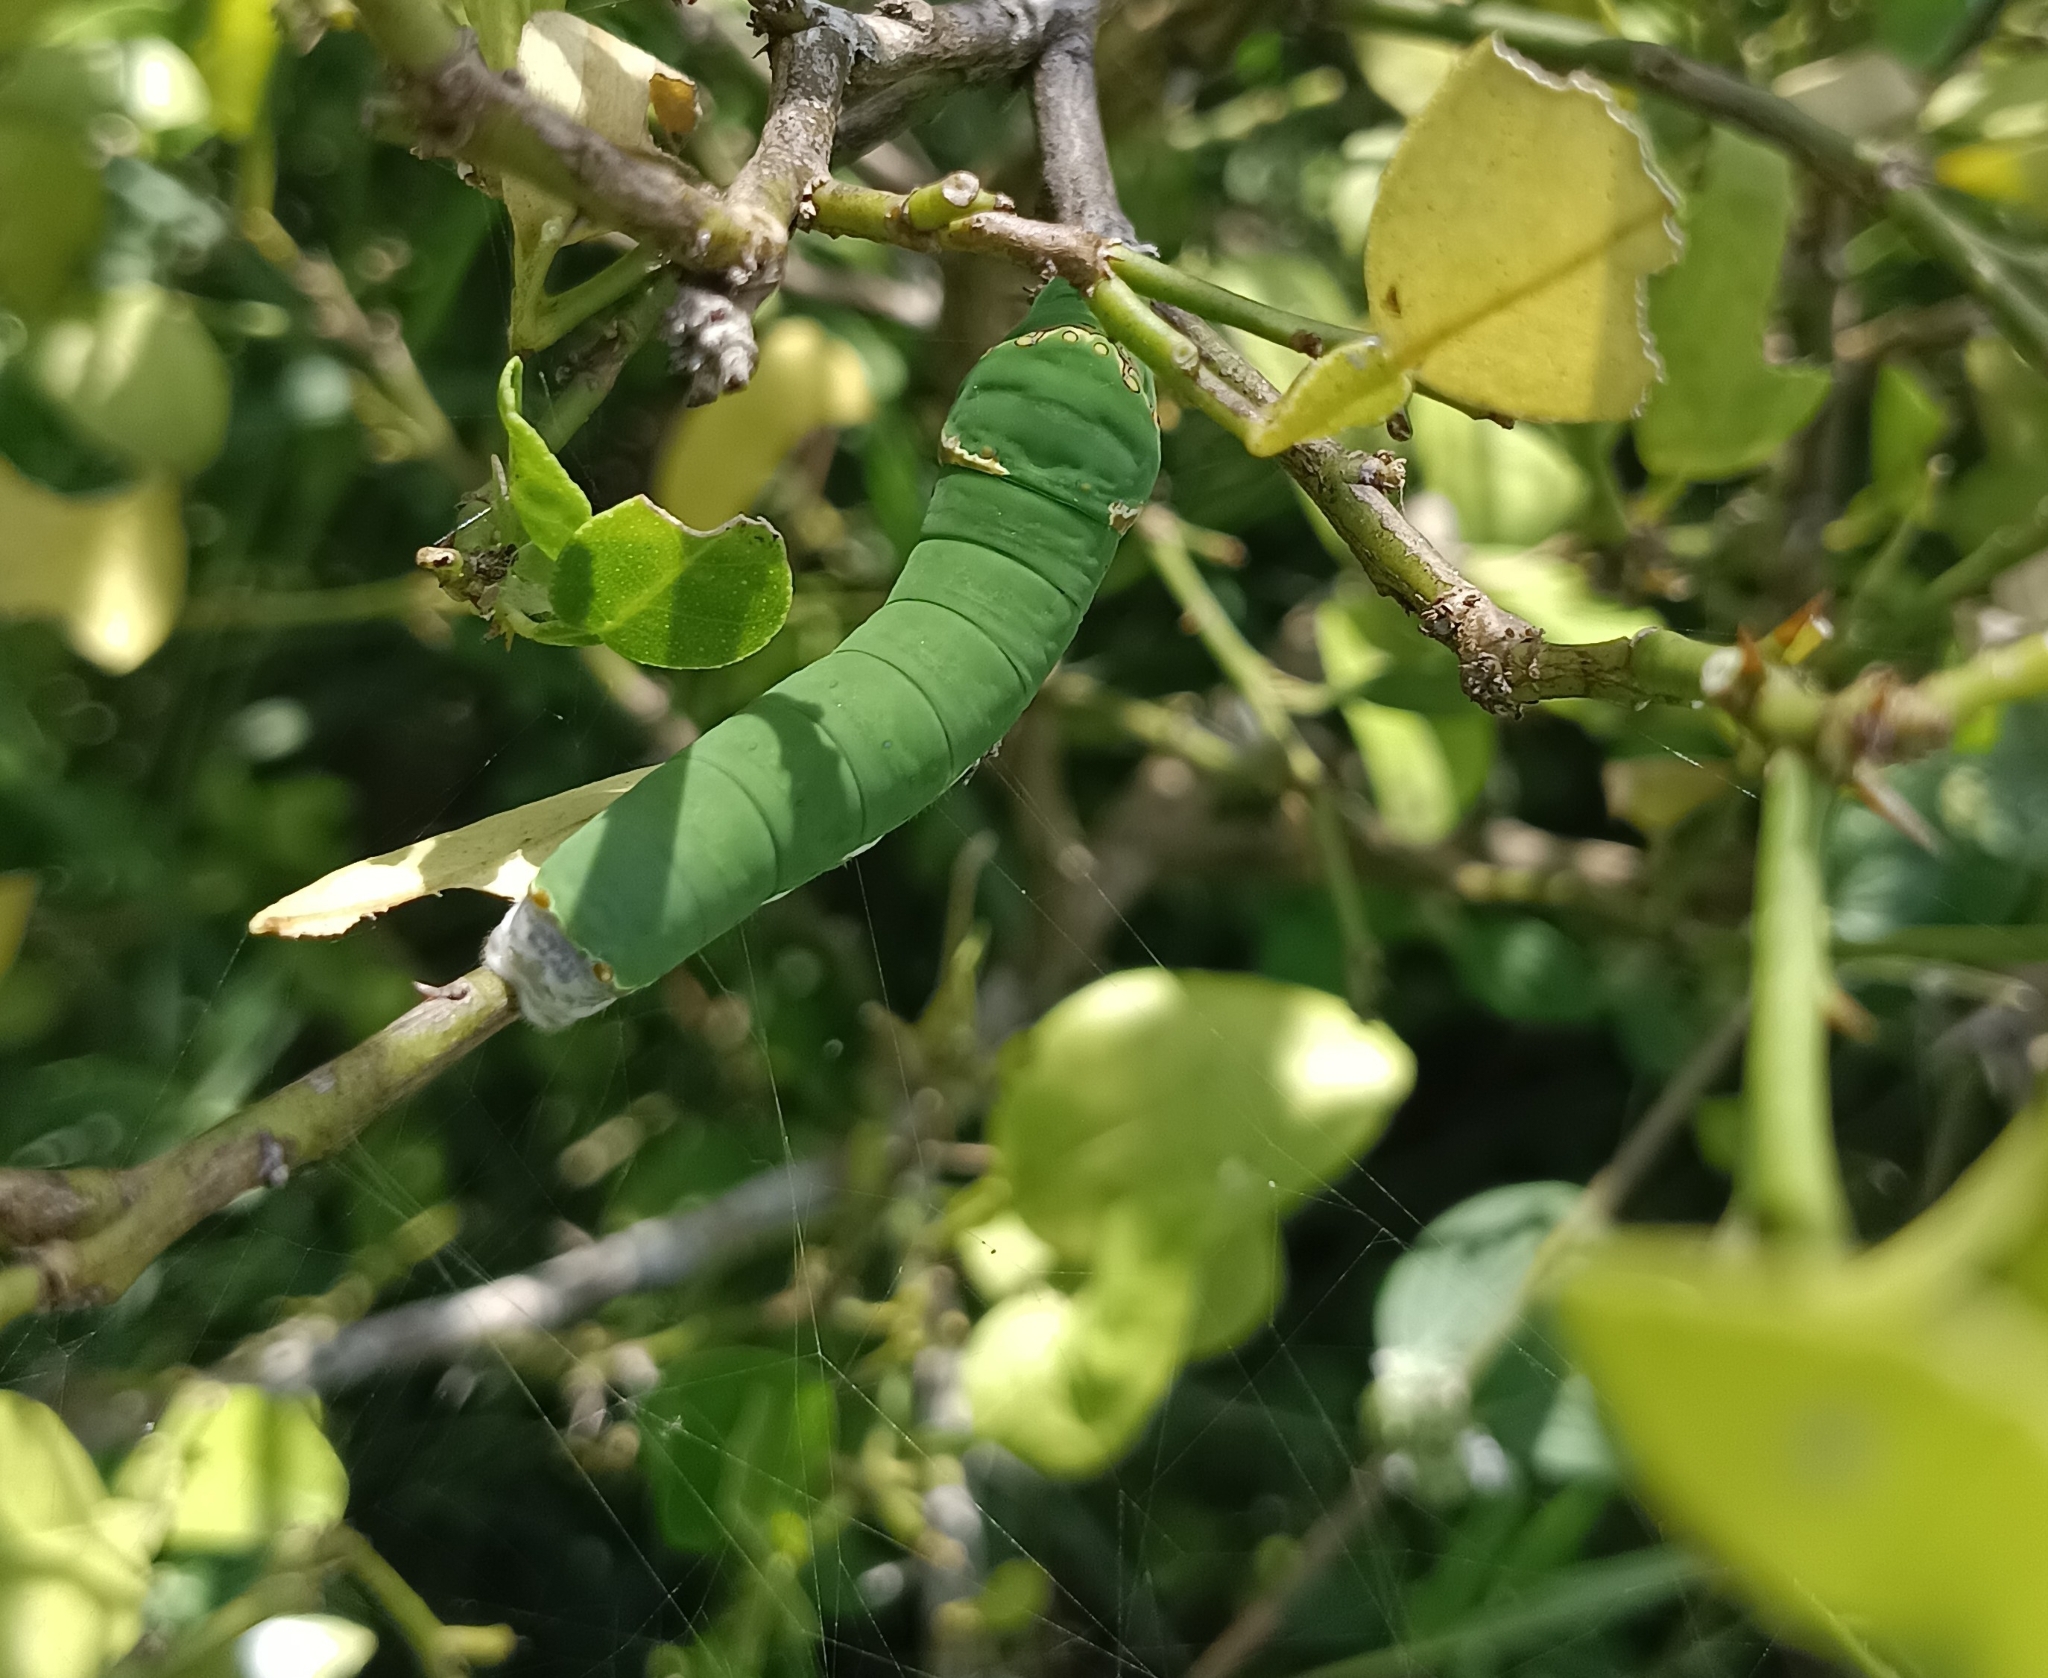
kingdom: Animalia
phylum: Arthropoda
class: Insecta
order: Lepidoptera
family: Papilionidae
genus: Papilio
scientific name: Papilio demoleus
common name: Lime butterfly
